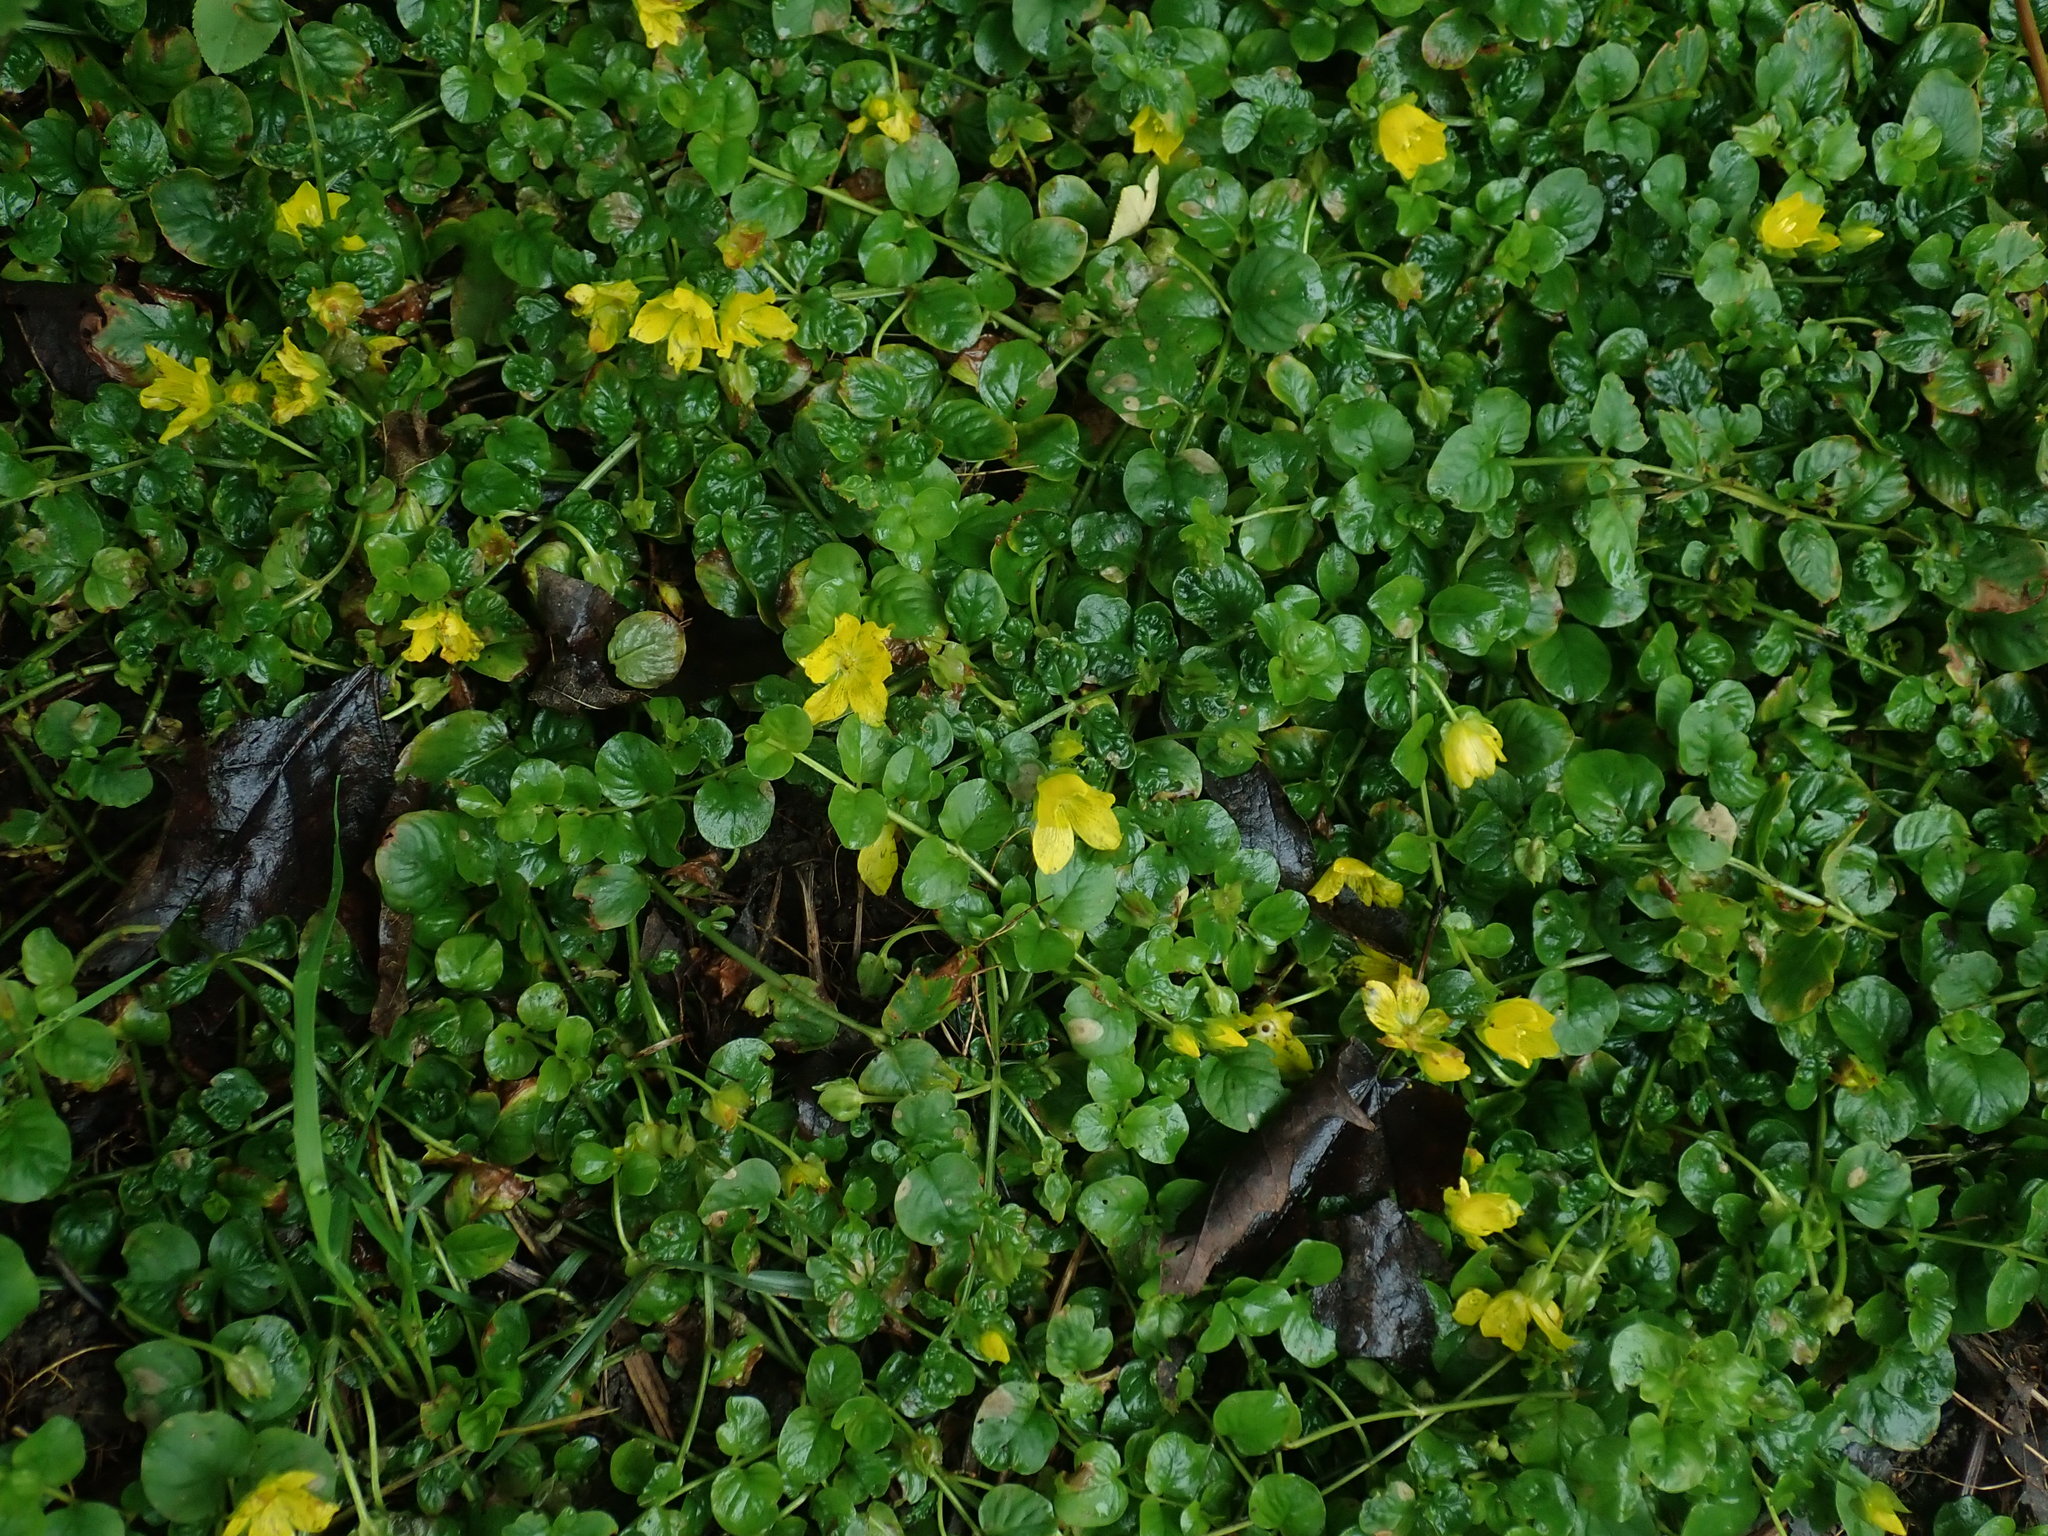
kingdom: Plantae
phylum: Tracheophyta
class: Magnoliopsida
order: Ericales
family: Primulaceae
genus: Lysimachia
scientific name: Lysimachia nummularia
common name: Moneywort
